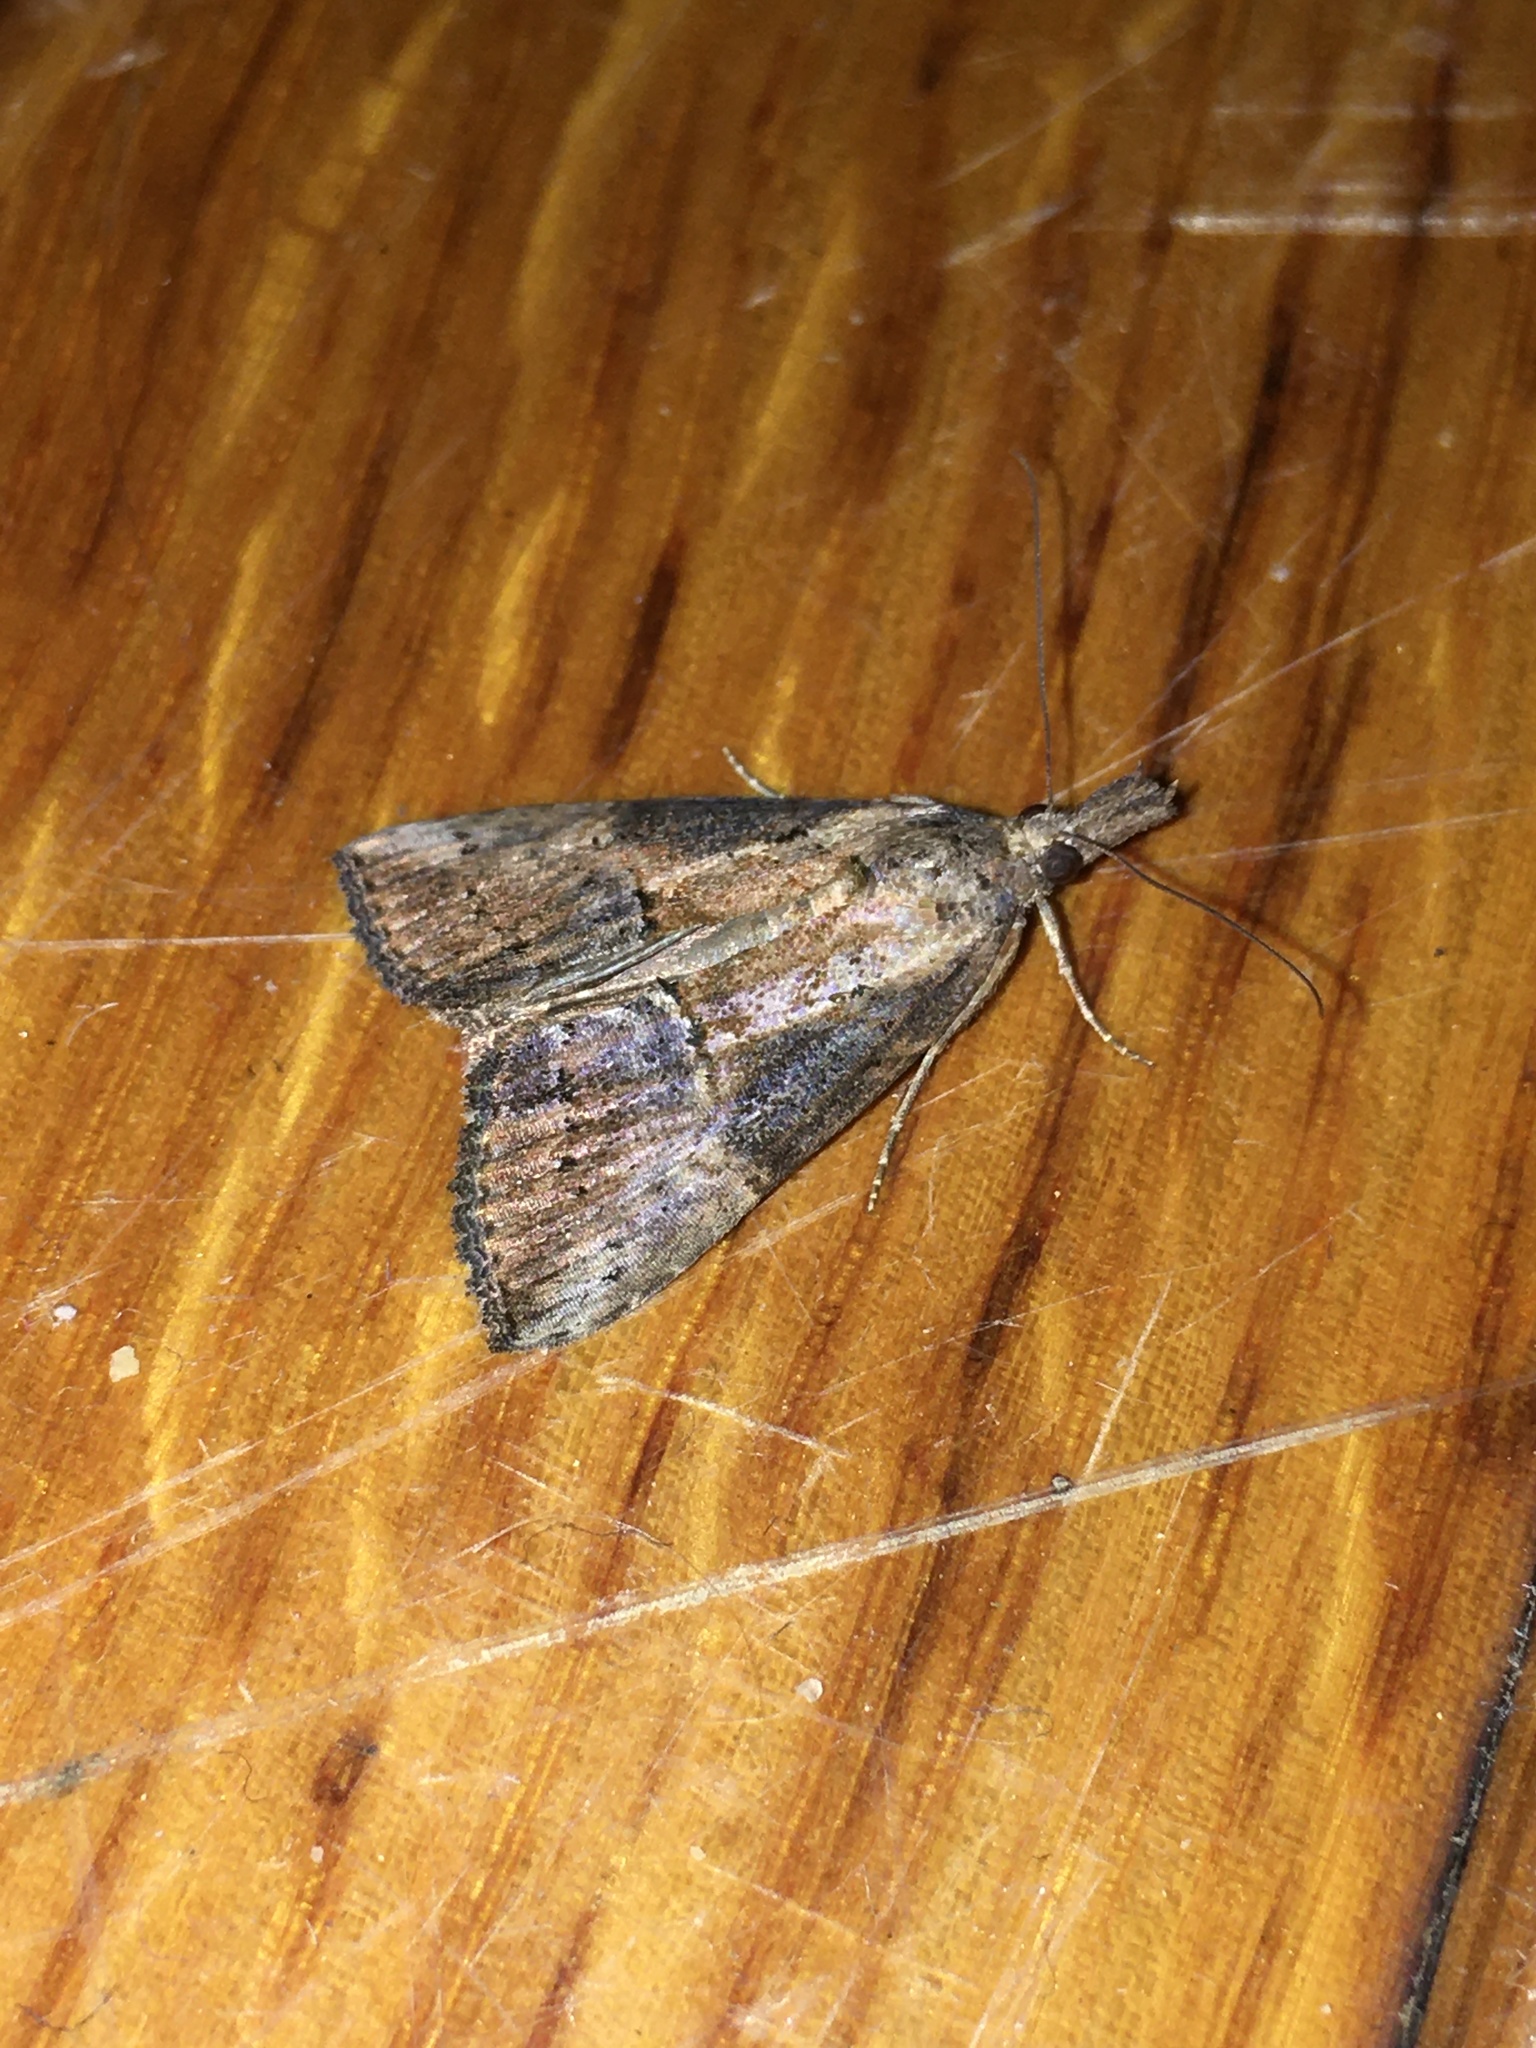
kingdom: Animalia
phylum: Arthropoda
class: Insecta
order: Lepidoptera
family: Erebidae
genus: Hypena
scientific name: Hypena scabra
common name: Green cloverworm
